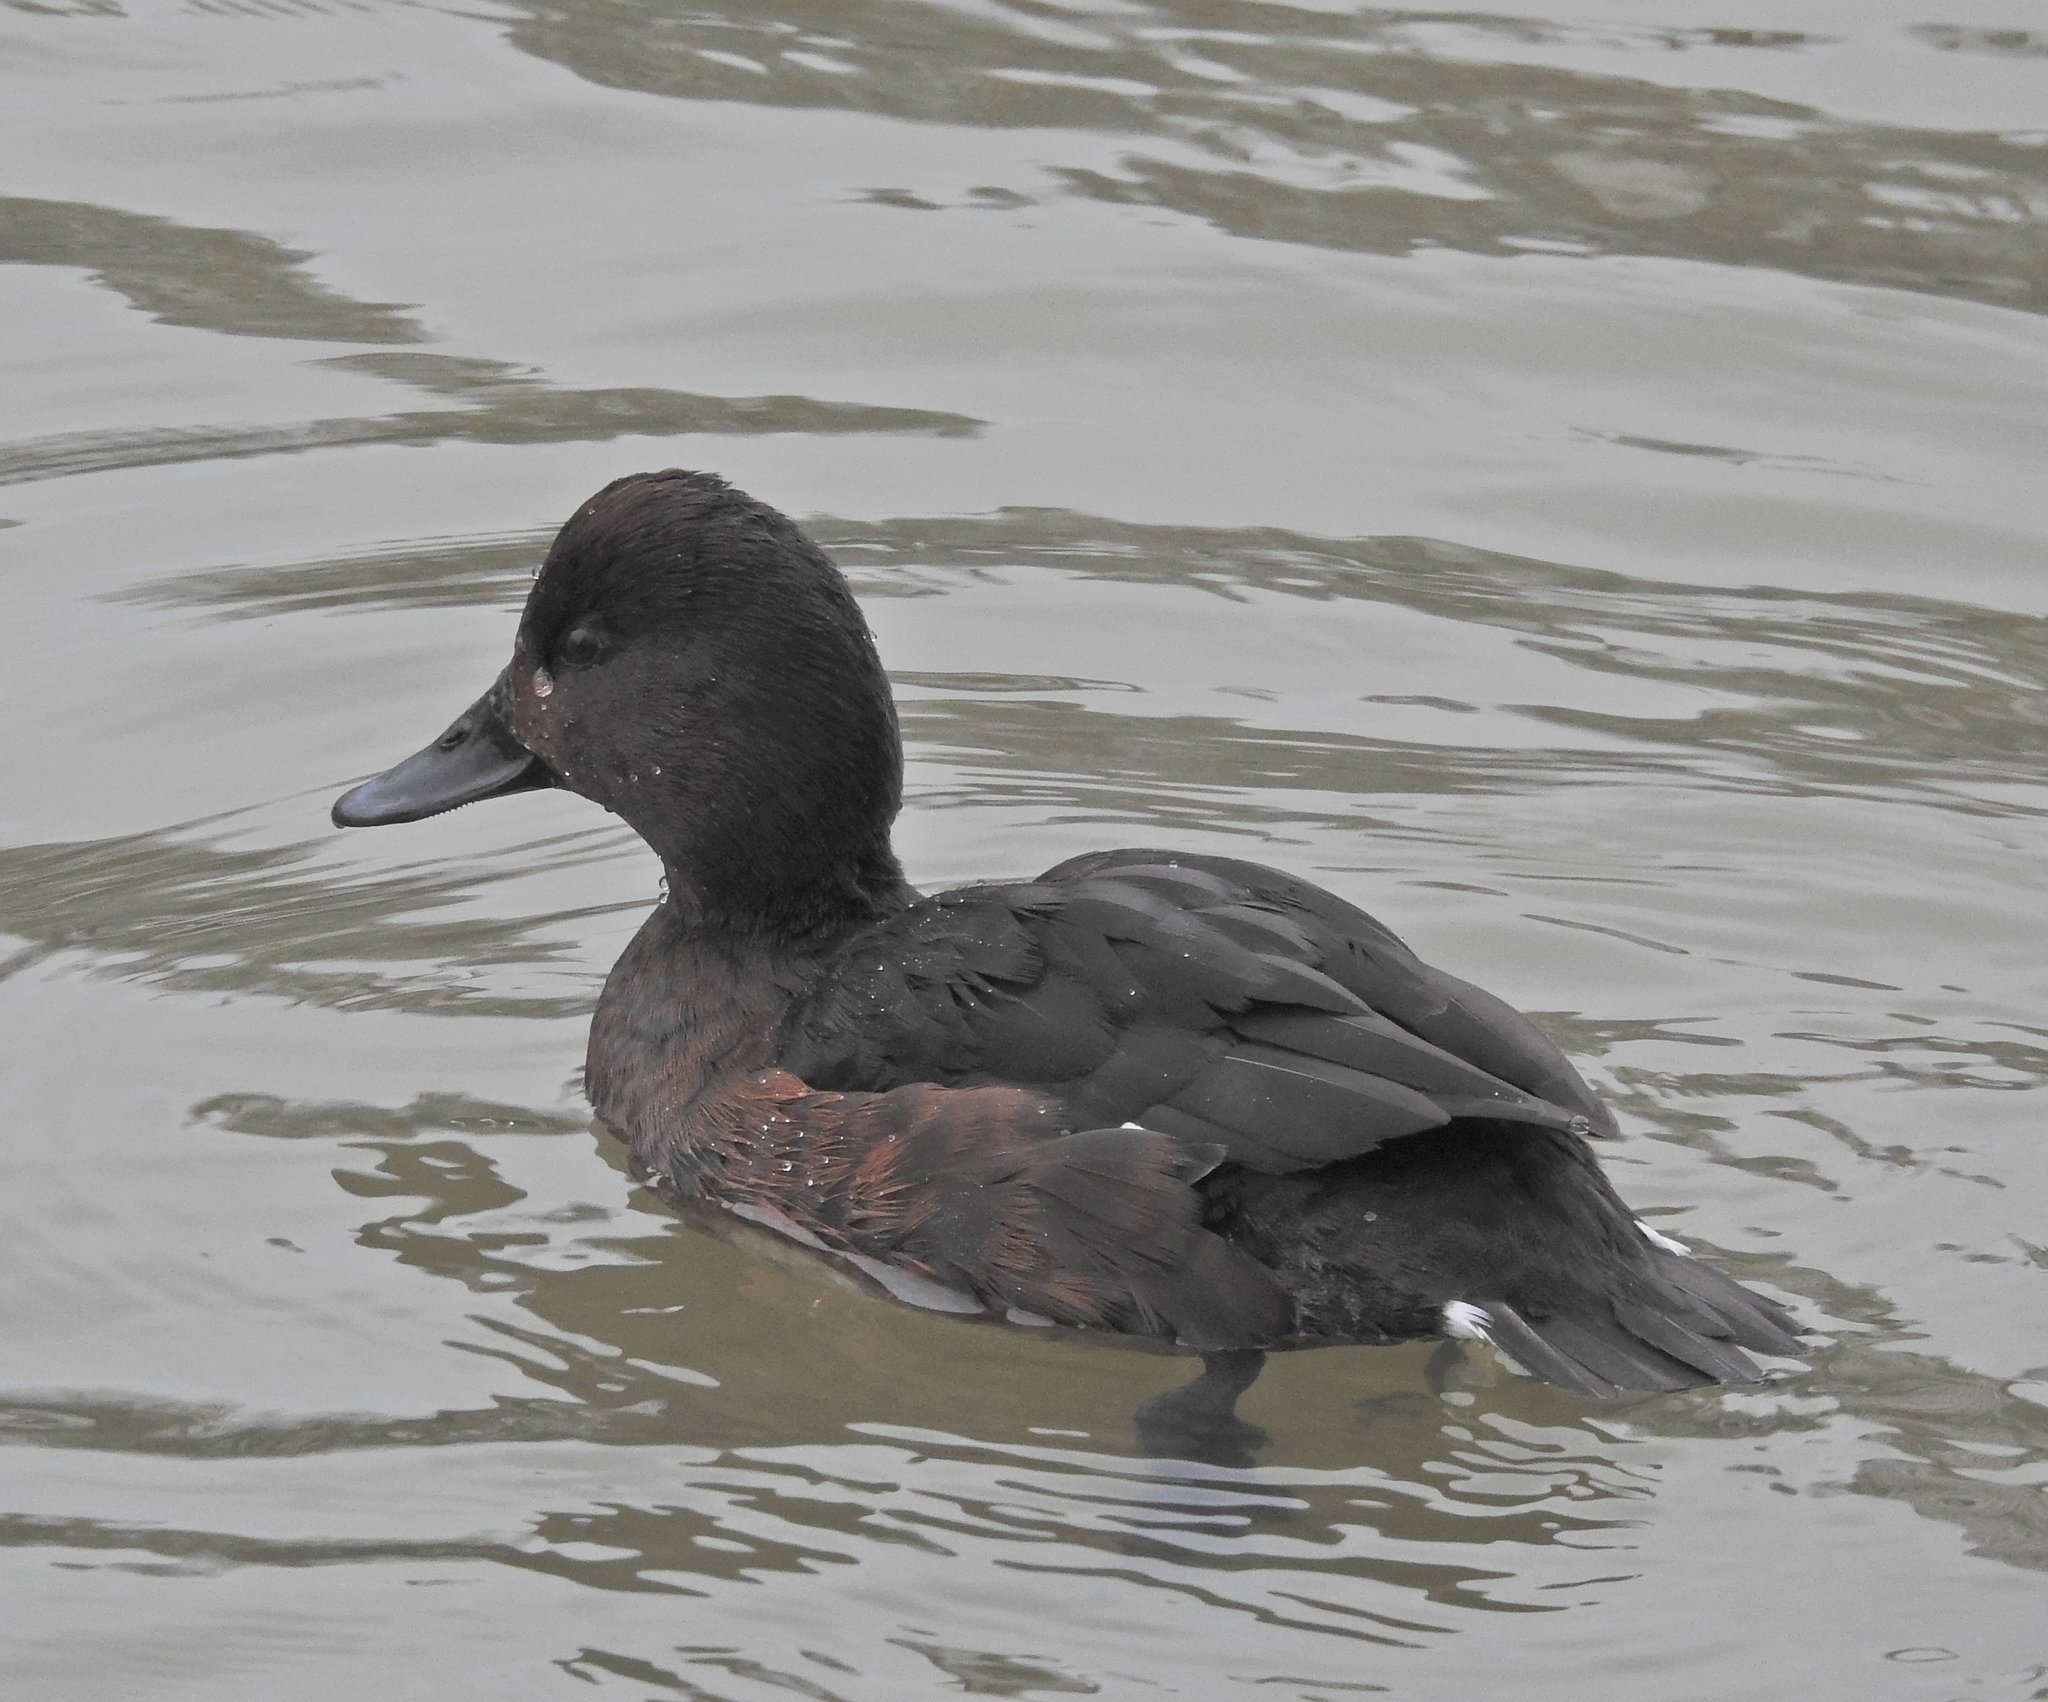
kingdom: Animalia
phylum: Chordata
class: Aves
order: Anseriformes
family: Anatidae
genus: Aythya
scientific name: Aythya nyroca
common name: Ferruginous duck
